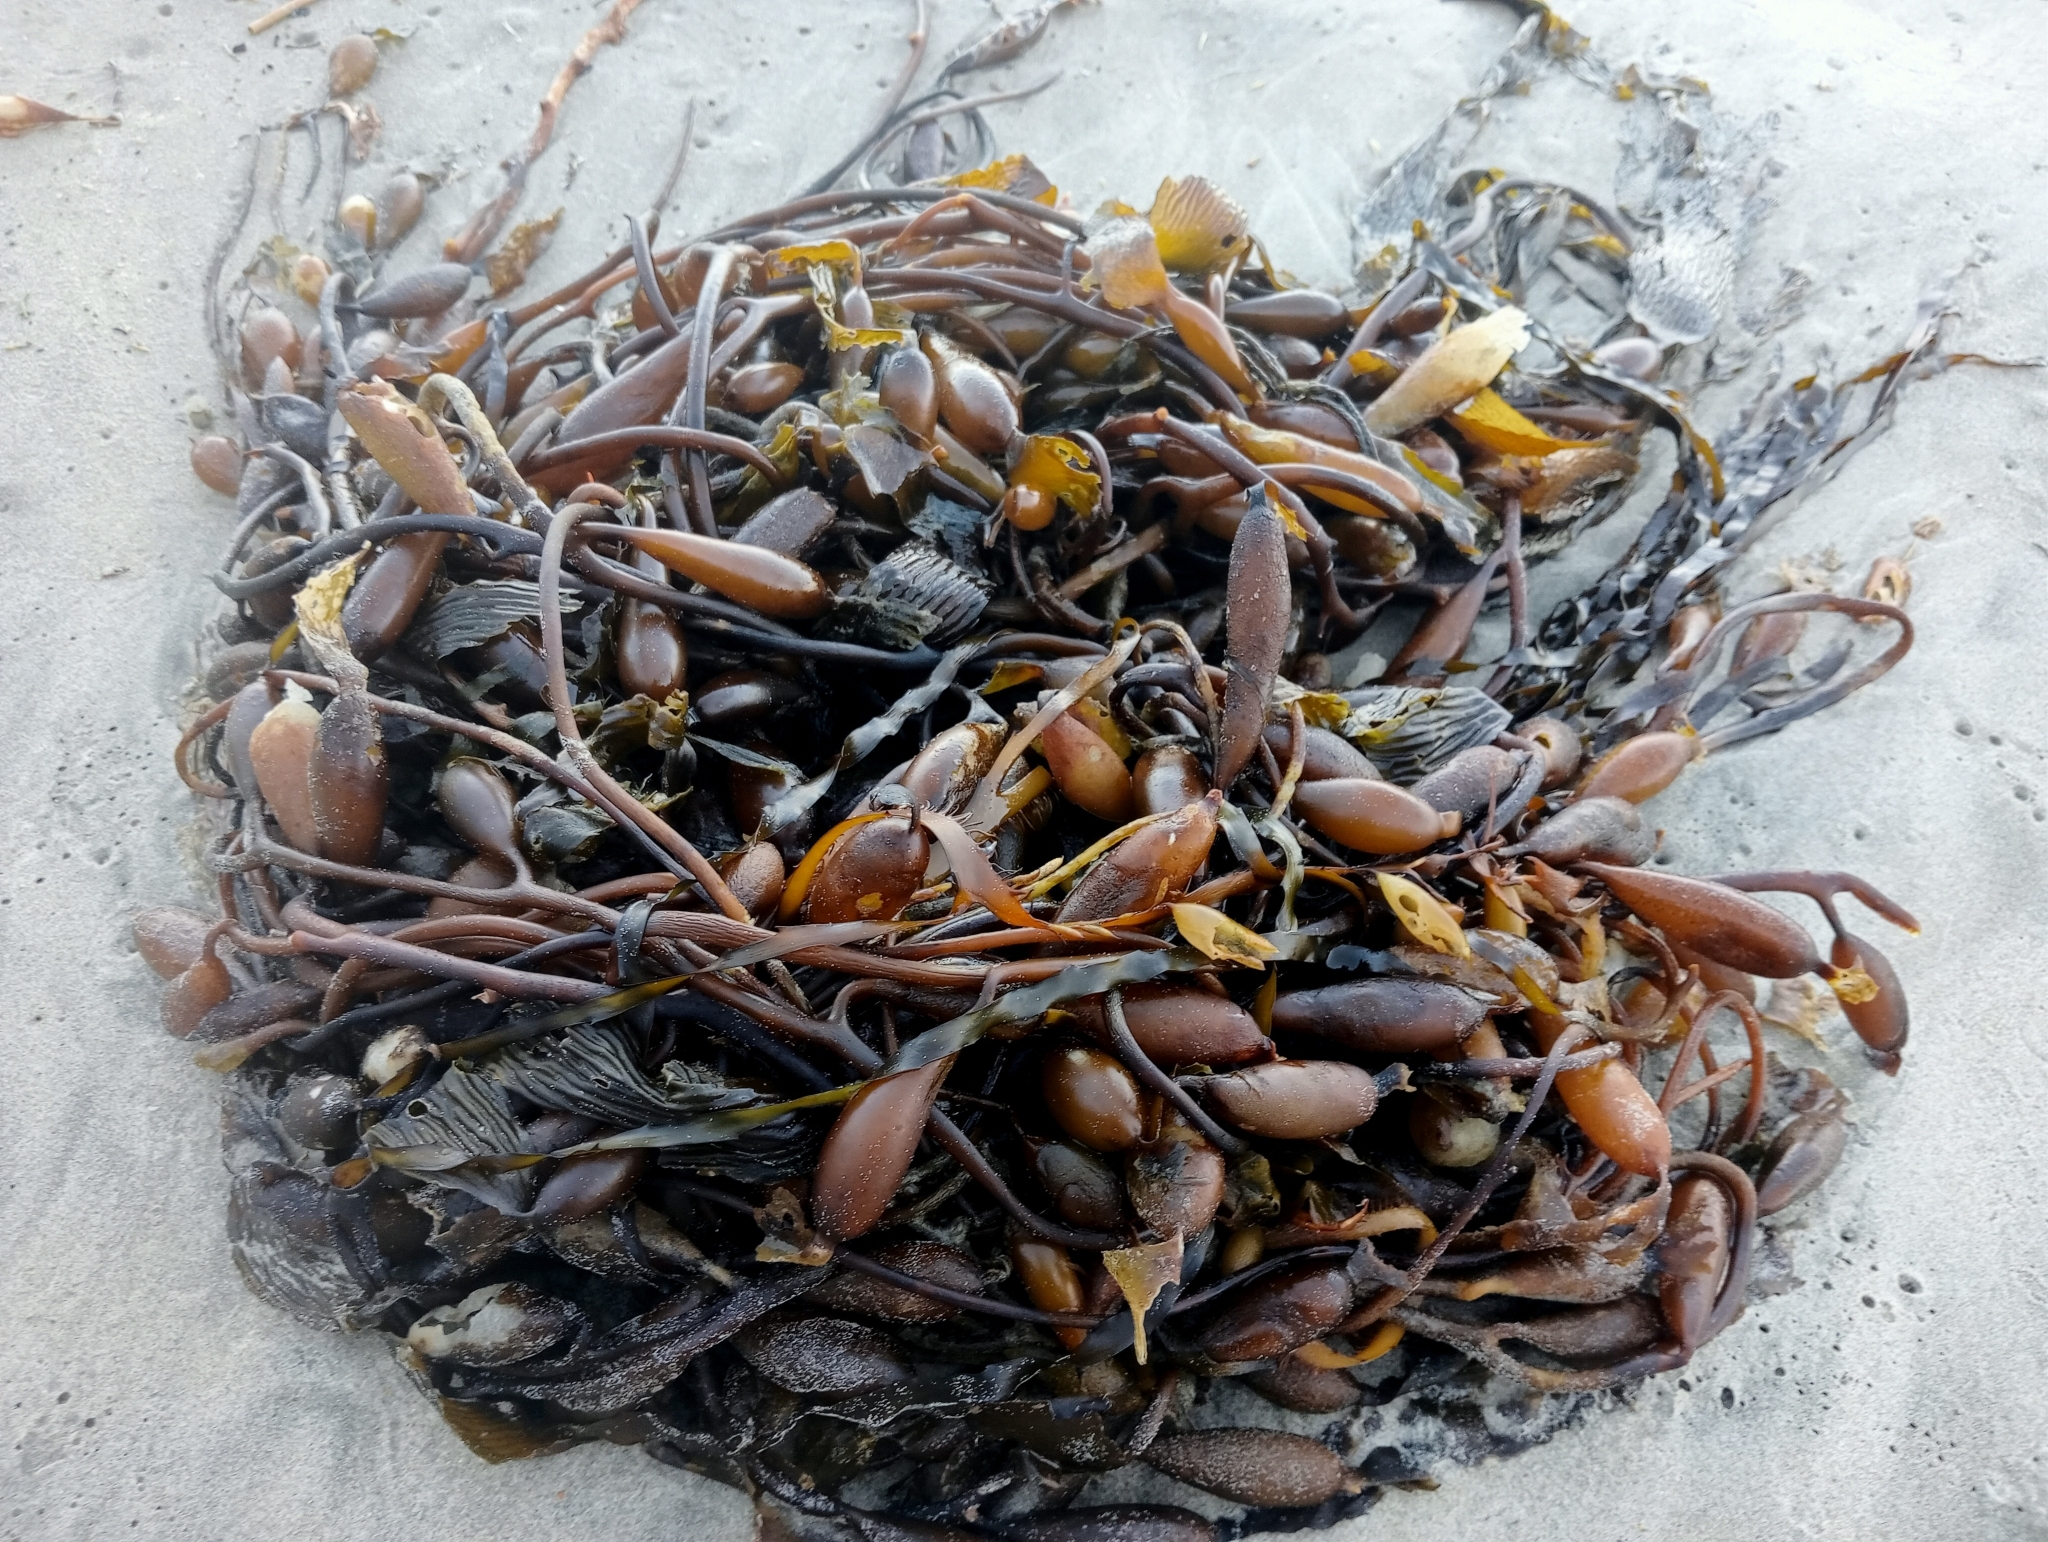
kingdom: Chromista
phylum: Ochrophyta
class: Phaeophyceae
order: Laminariales
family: Laminariaceae
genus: Macrocystis
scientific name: Macrocystis pyrifera
